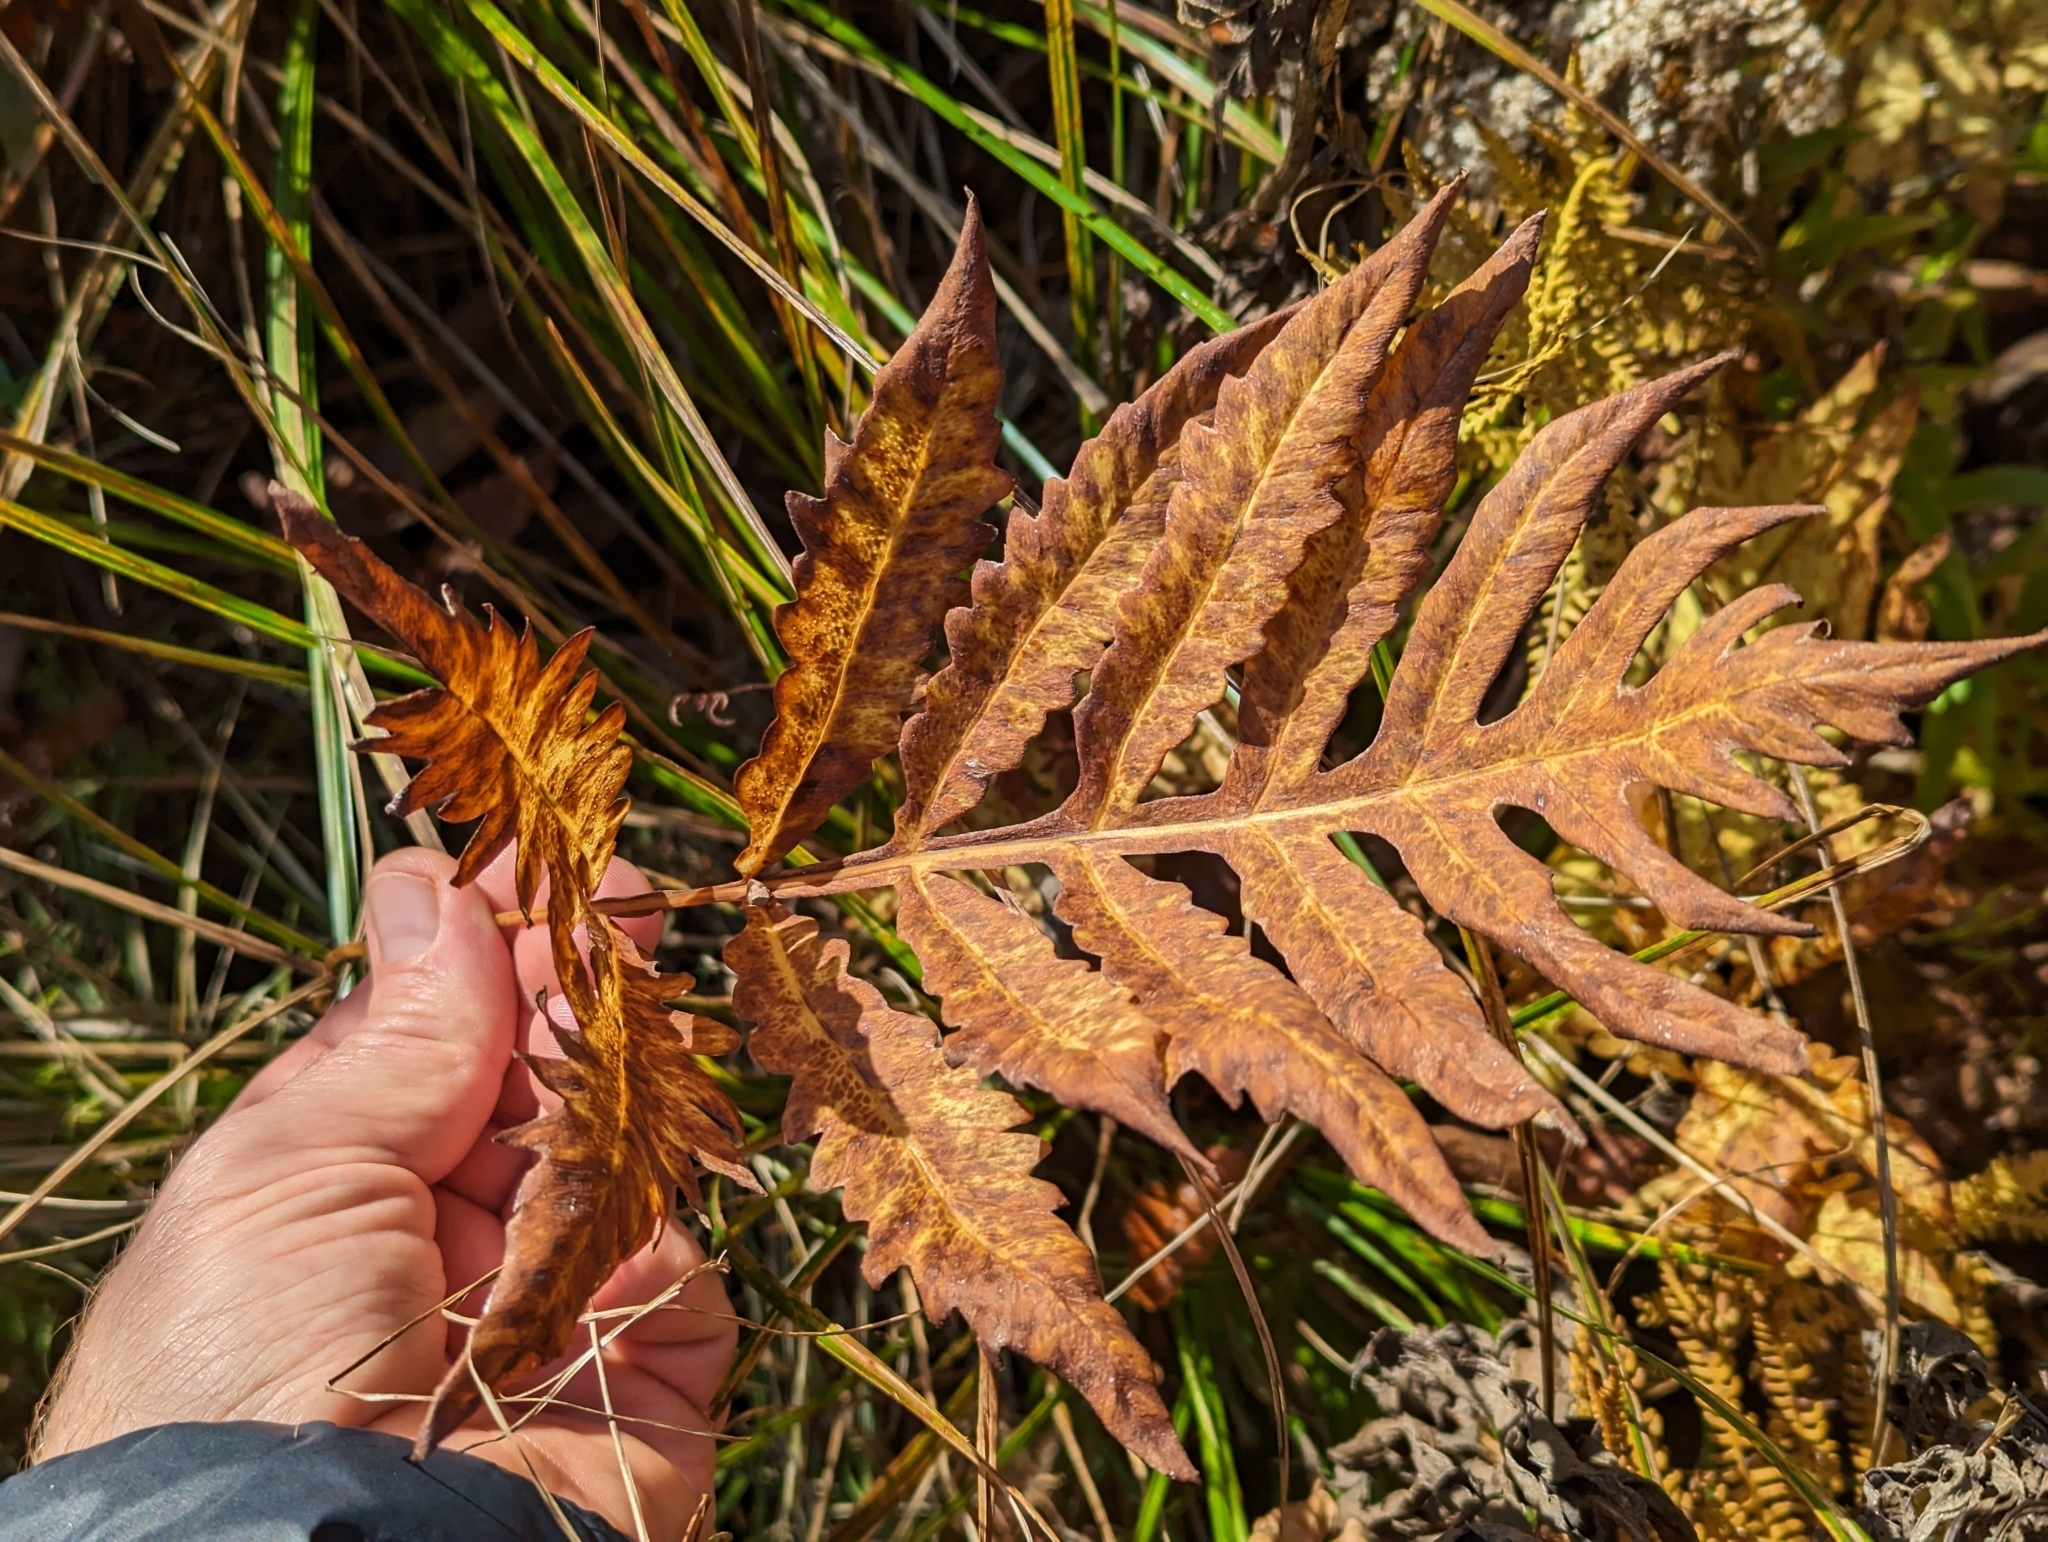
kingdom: Plantae
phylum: Tracheophyta
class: Polypodiopsida
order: Polypodiales
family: Onocleaceae
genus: Onoclea
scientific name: Onoclea sensibilis
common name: Sensitive fern
